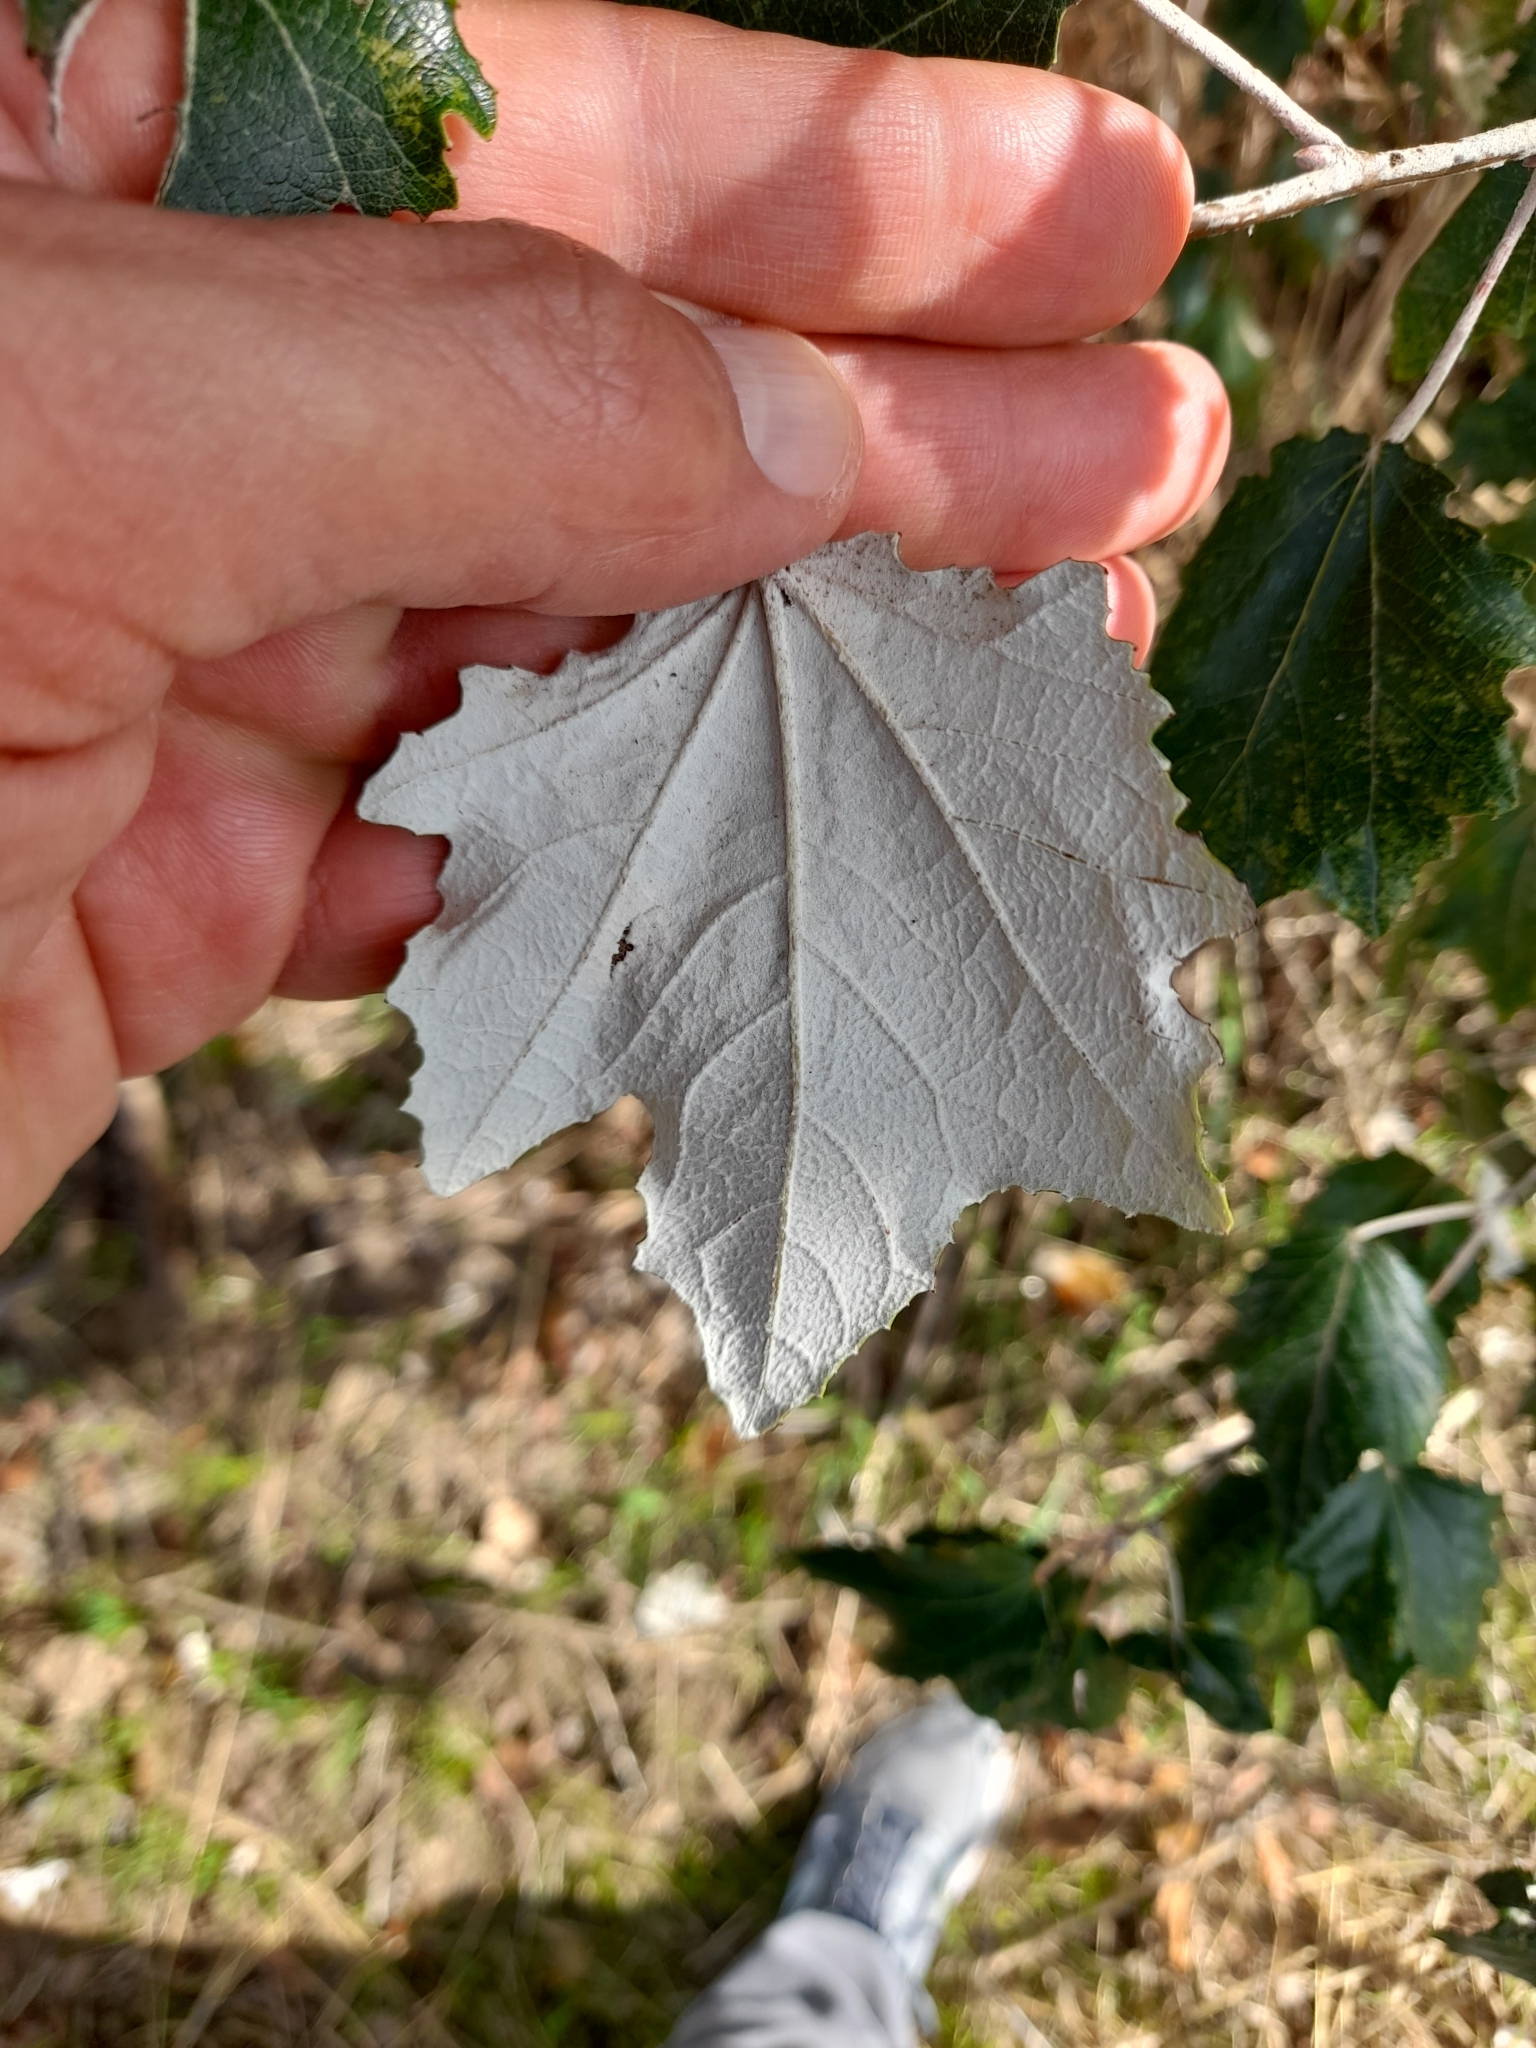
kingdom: Plantae
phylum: Tracheophyta
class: Magnoliopsida
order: Malpighiales
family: Salicaceae
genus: Populus
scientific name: Populus alba
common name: White poplar
